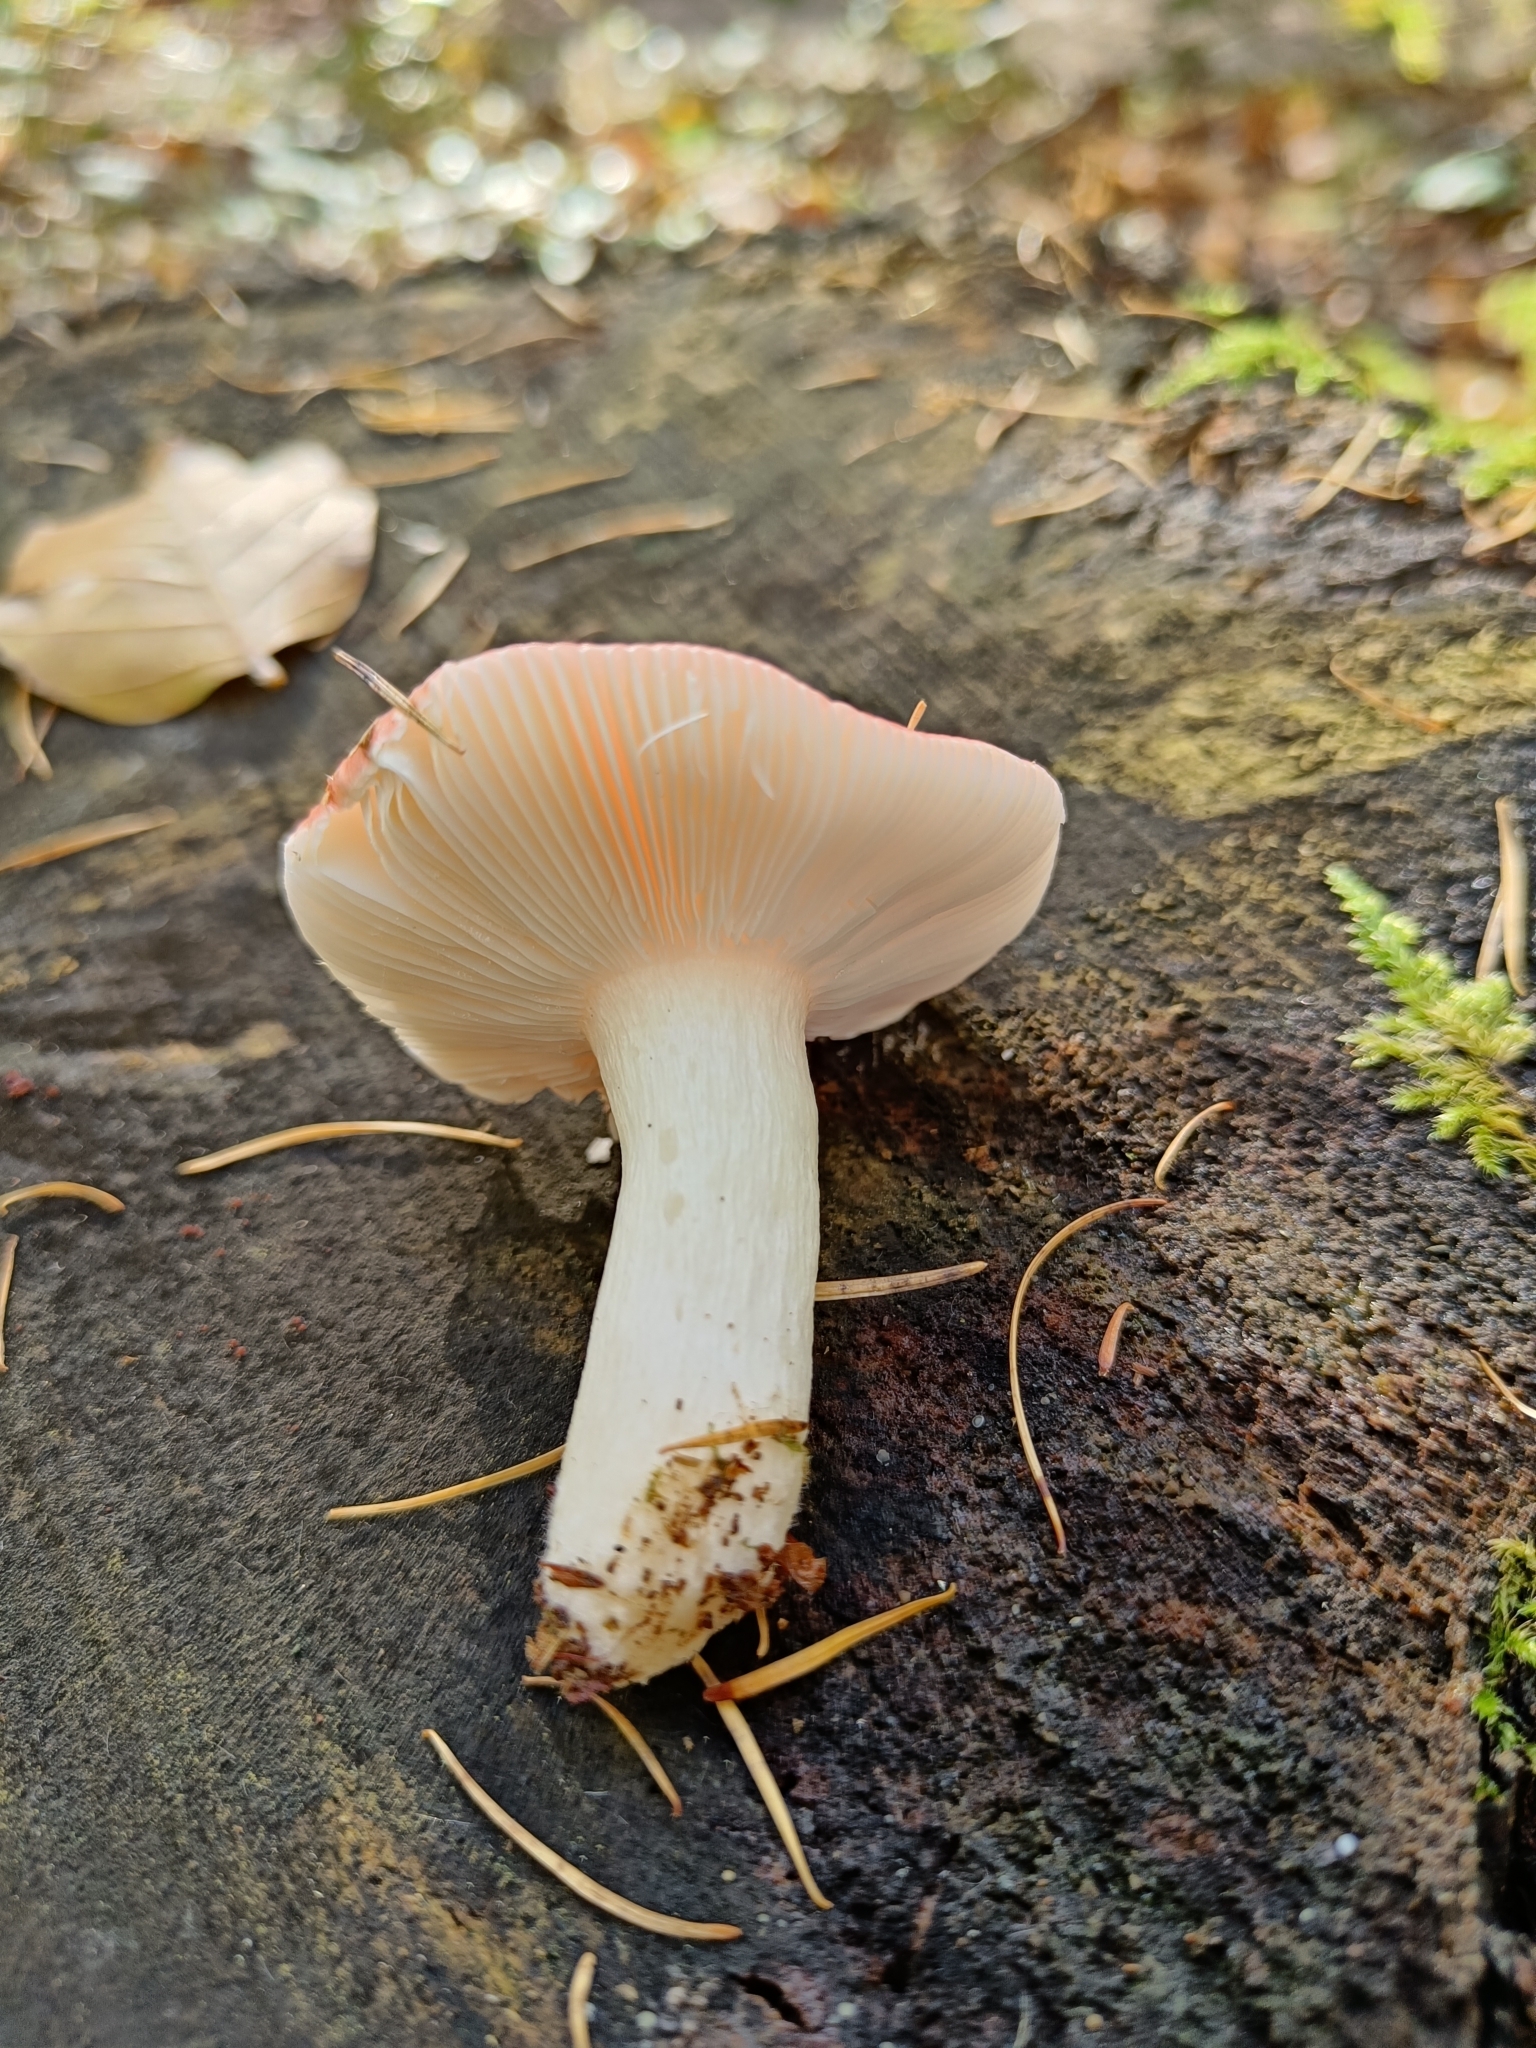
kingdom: Fungi
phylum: Basidiomycota
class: Agaricomycetes
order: Russulales
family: Russulaceae
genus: Russula
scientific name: Russula nobilis
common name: Beechwood sickener
